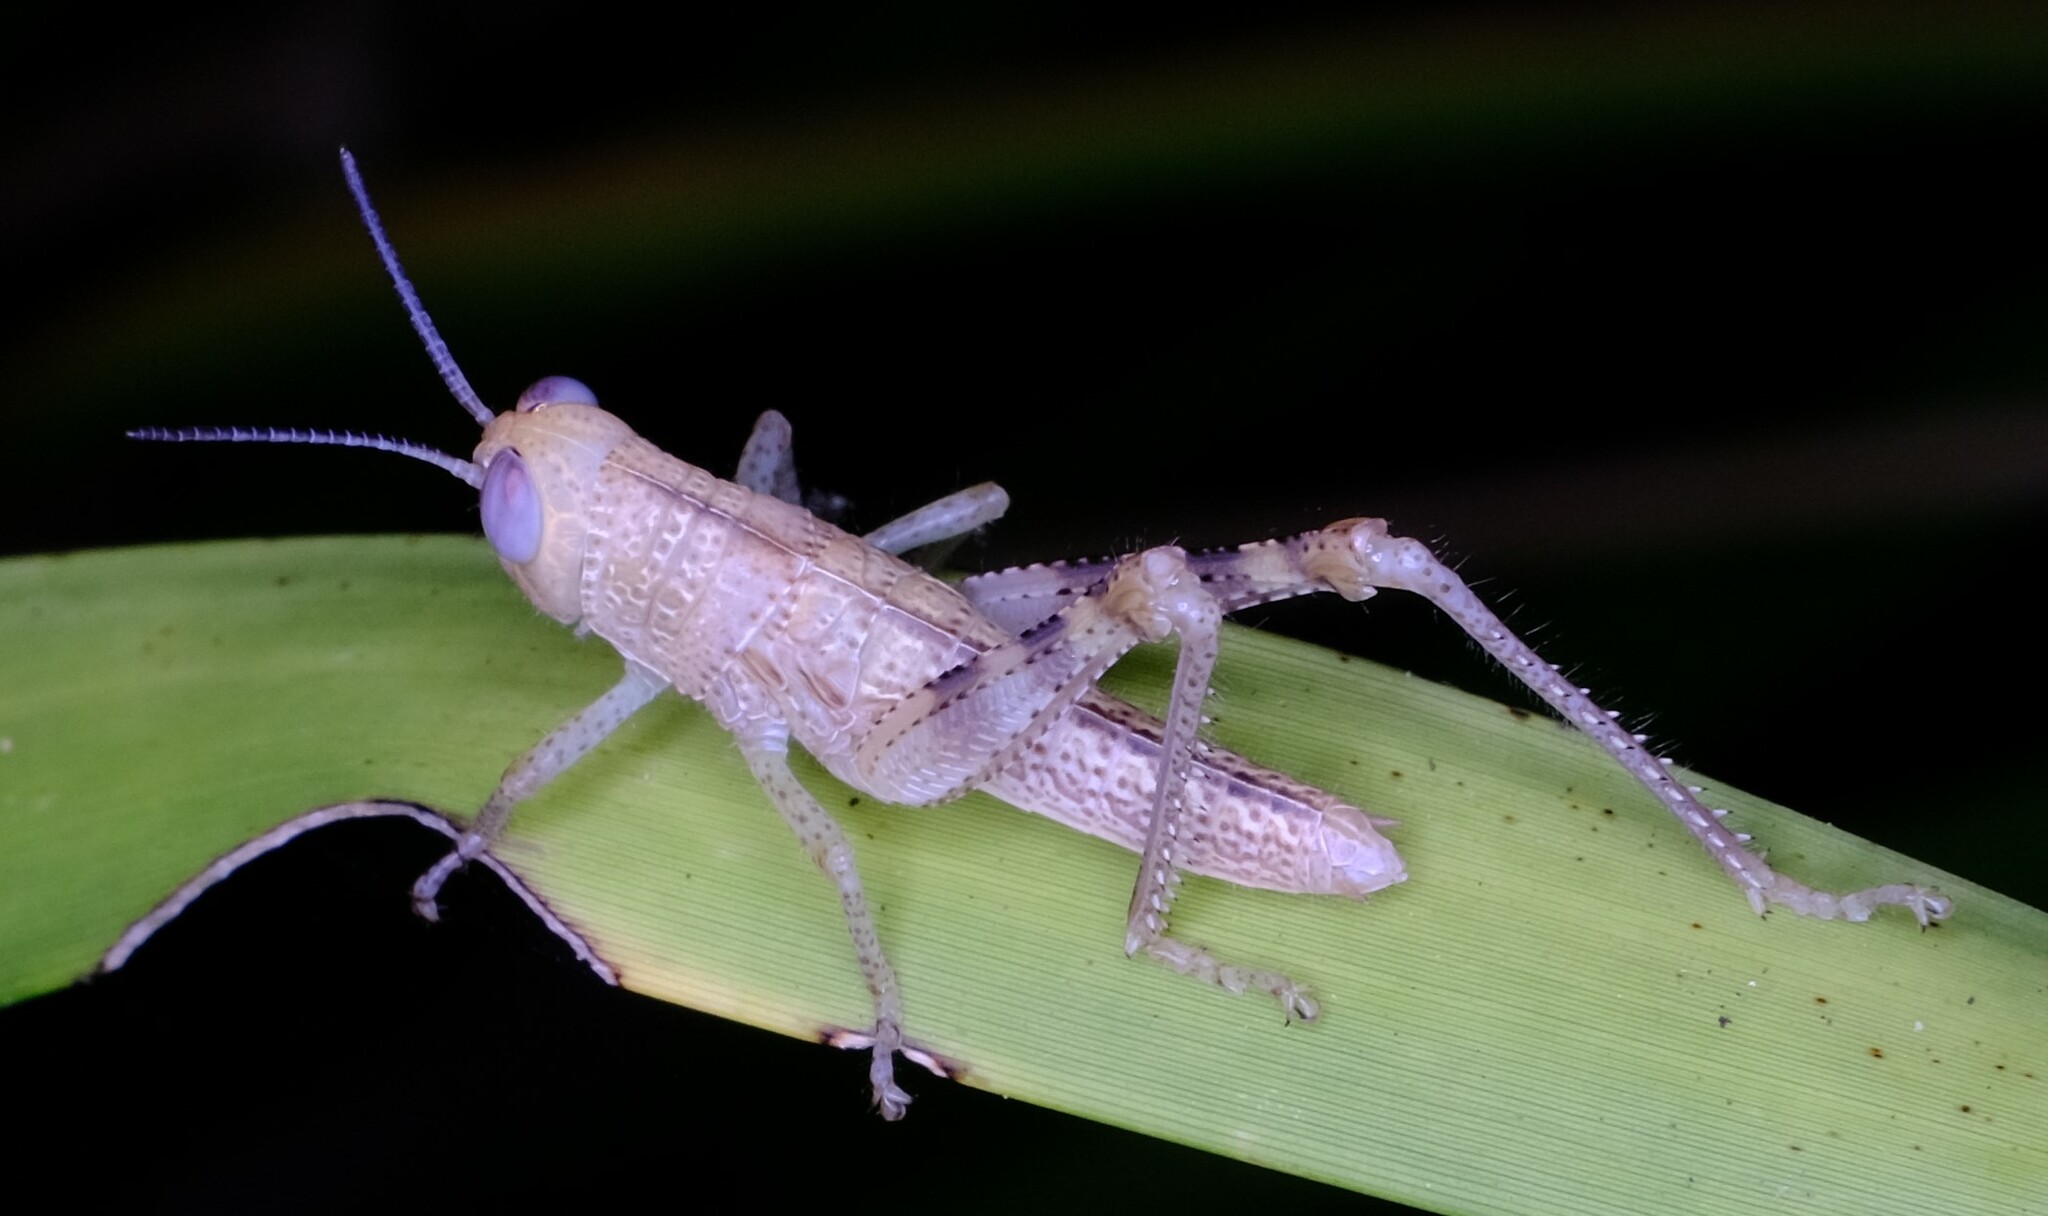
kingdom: Animalia
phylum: Arthropoda
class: Insecta
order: Orthoptera
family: Acrididae
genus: Valanga
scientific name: Valanga irregularis
